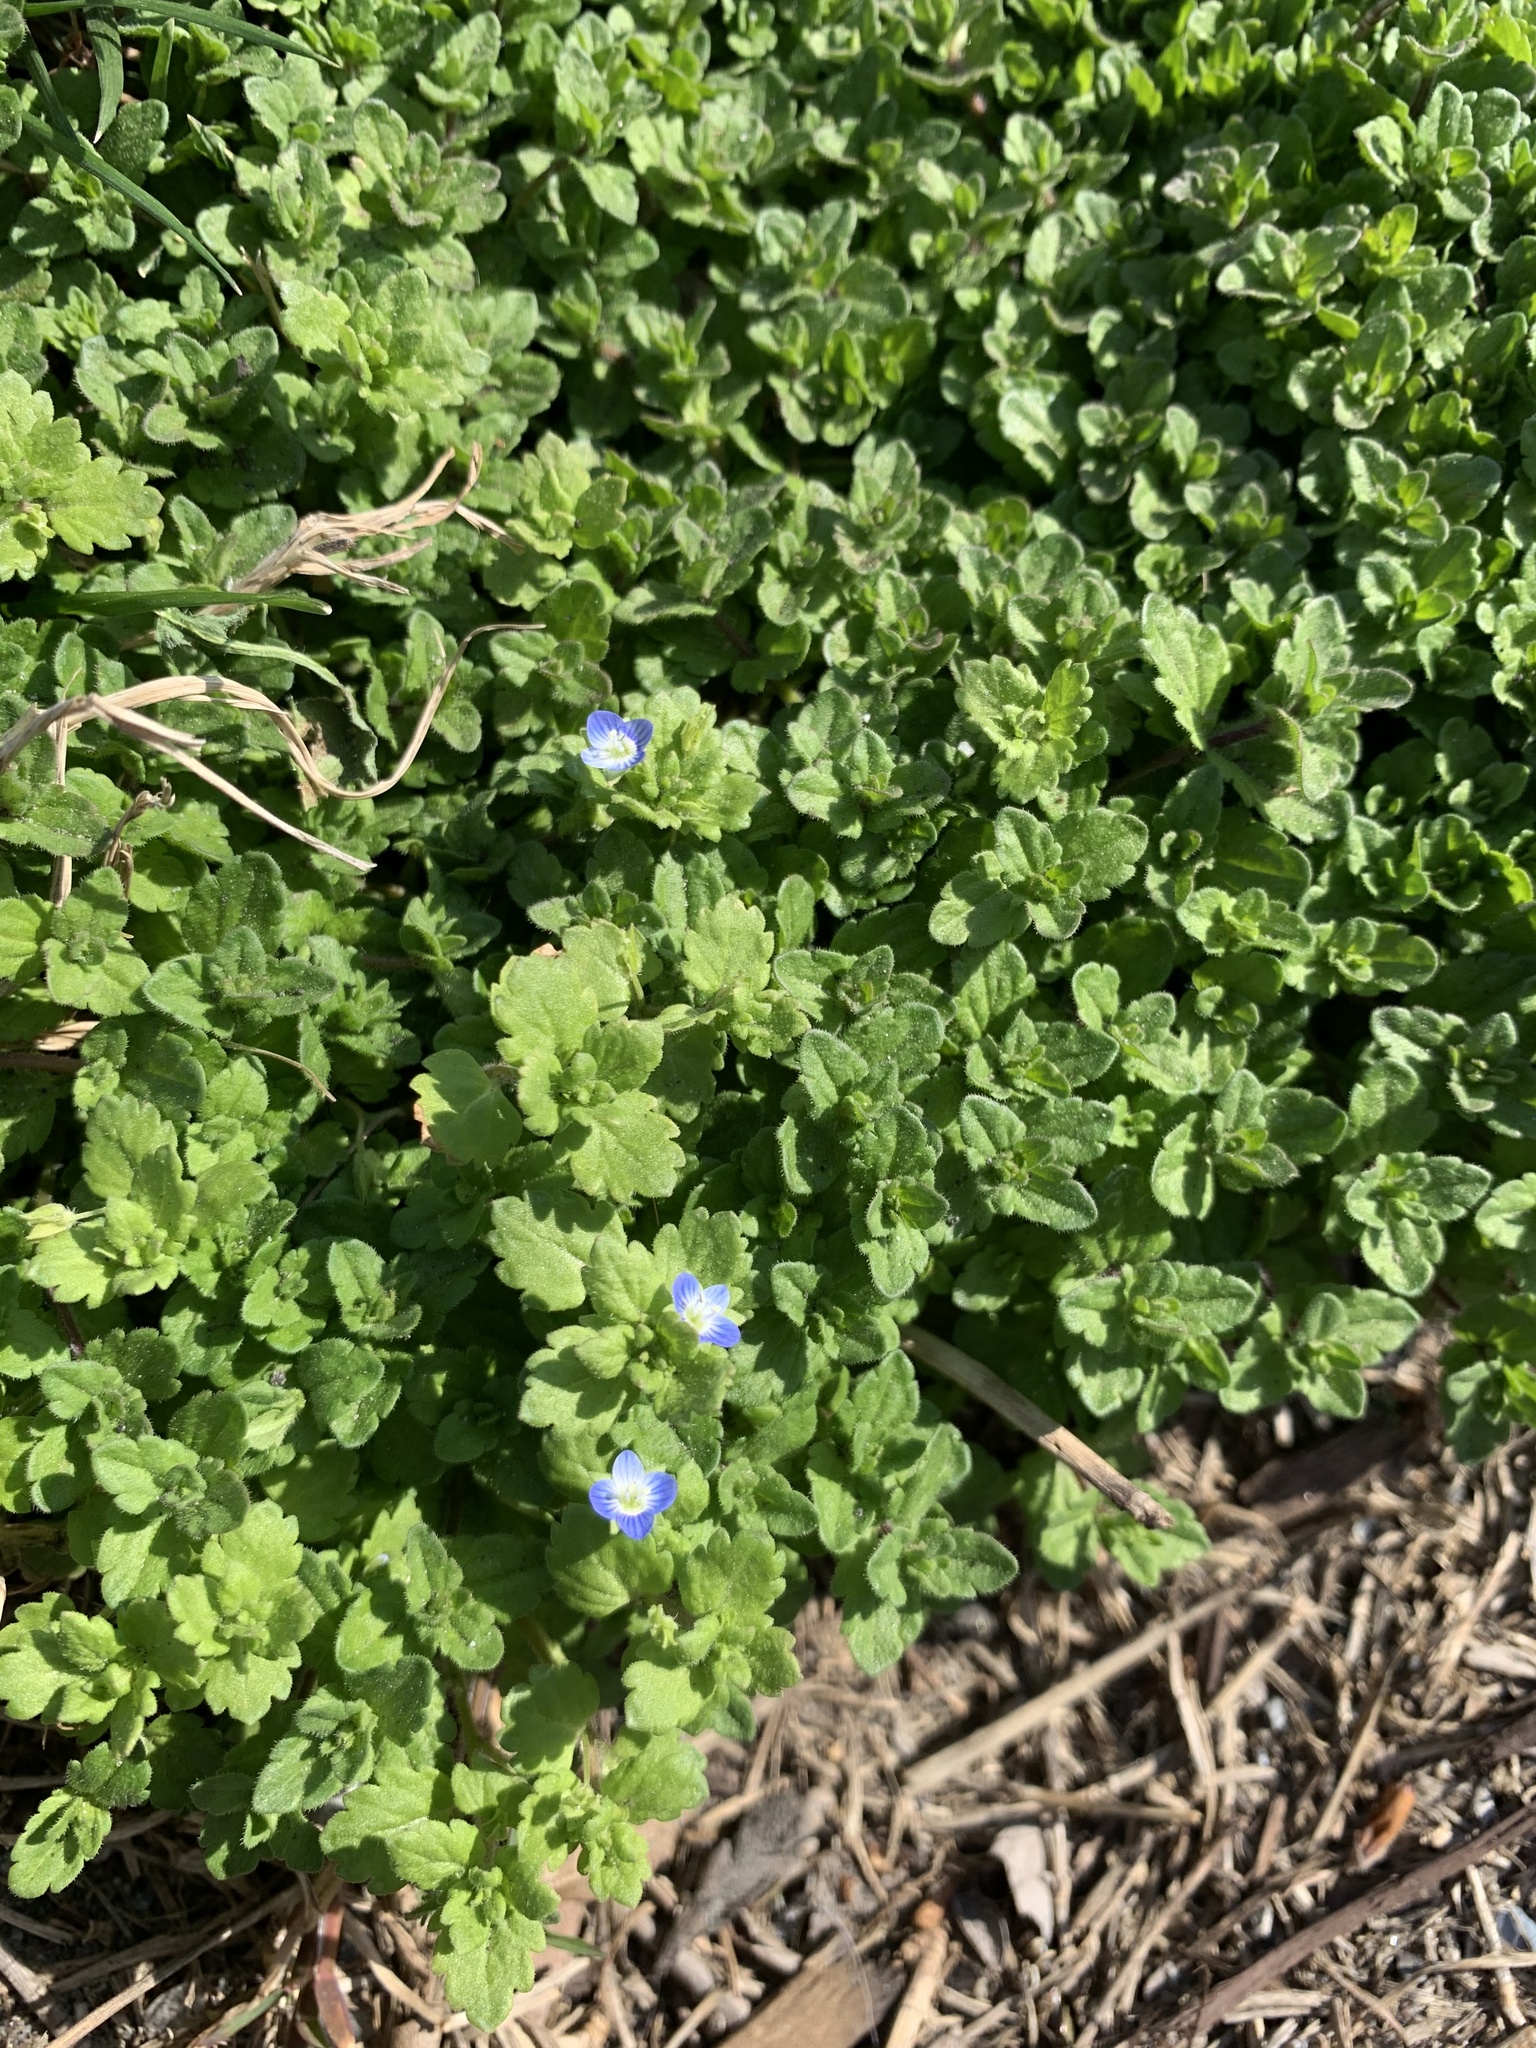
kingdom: Plantae
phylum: Tracheophyta
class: Magnoliopsida
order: Lamiales
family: Plantaginaceae
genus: Veronica
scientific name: Veronica persica
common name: Common field-speedwell
